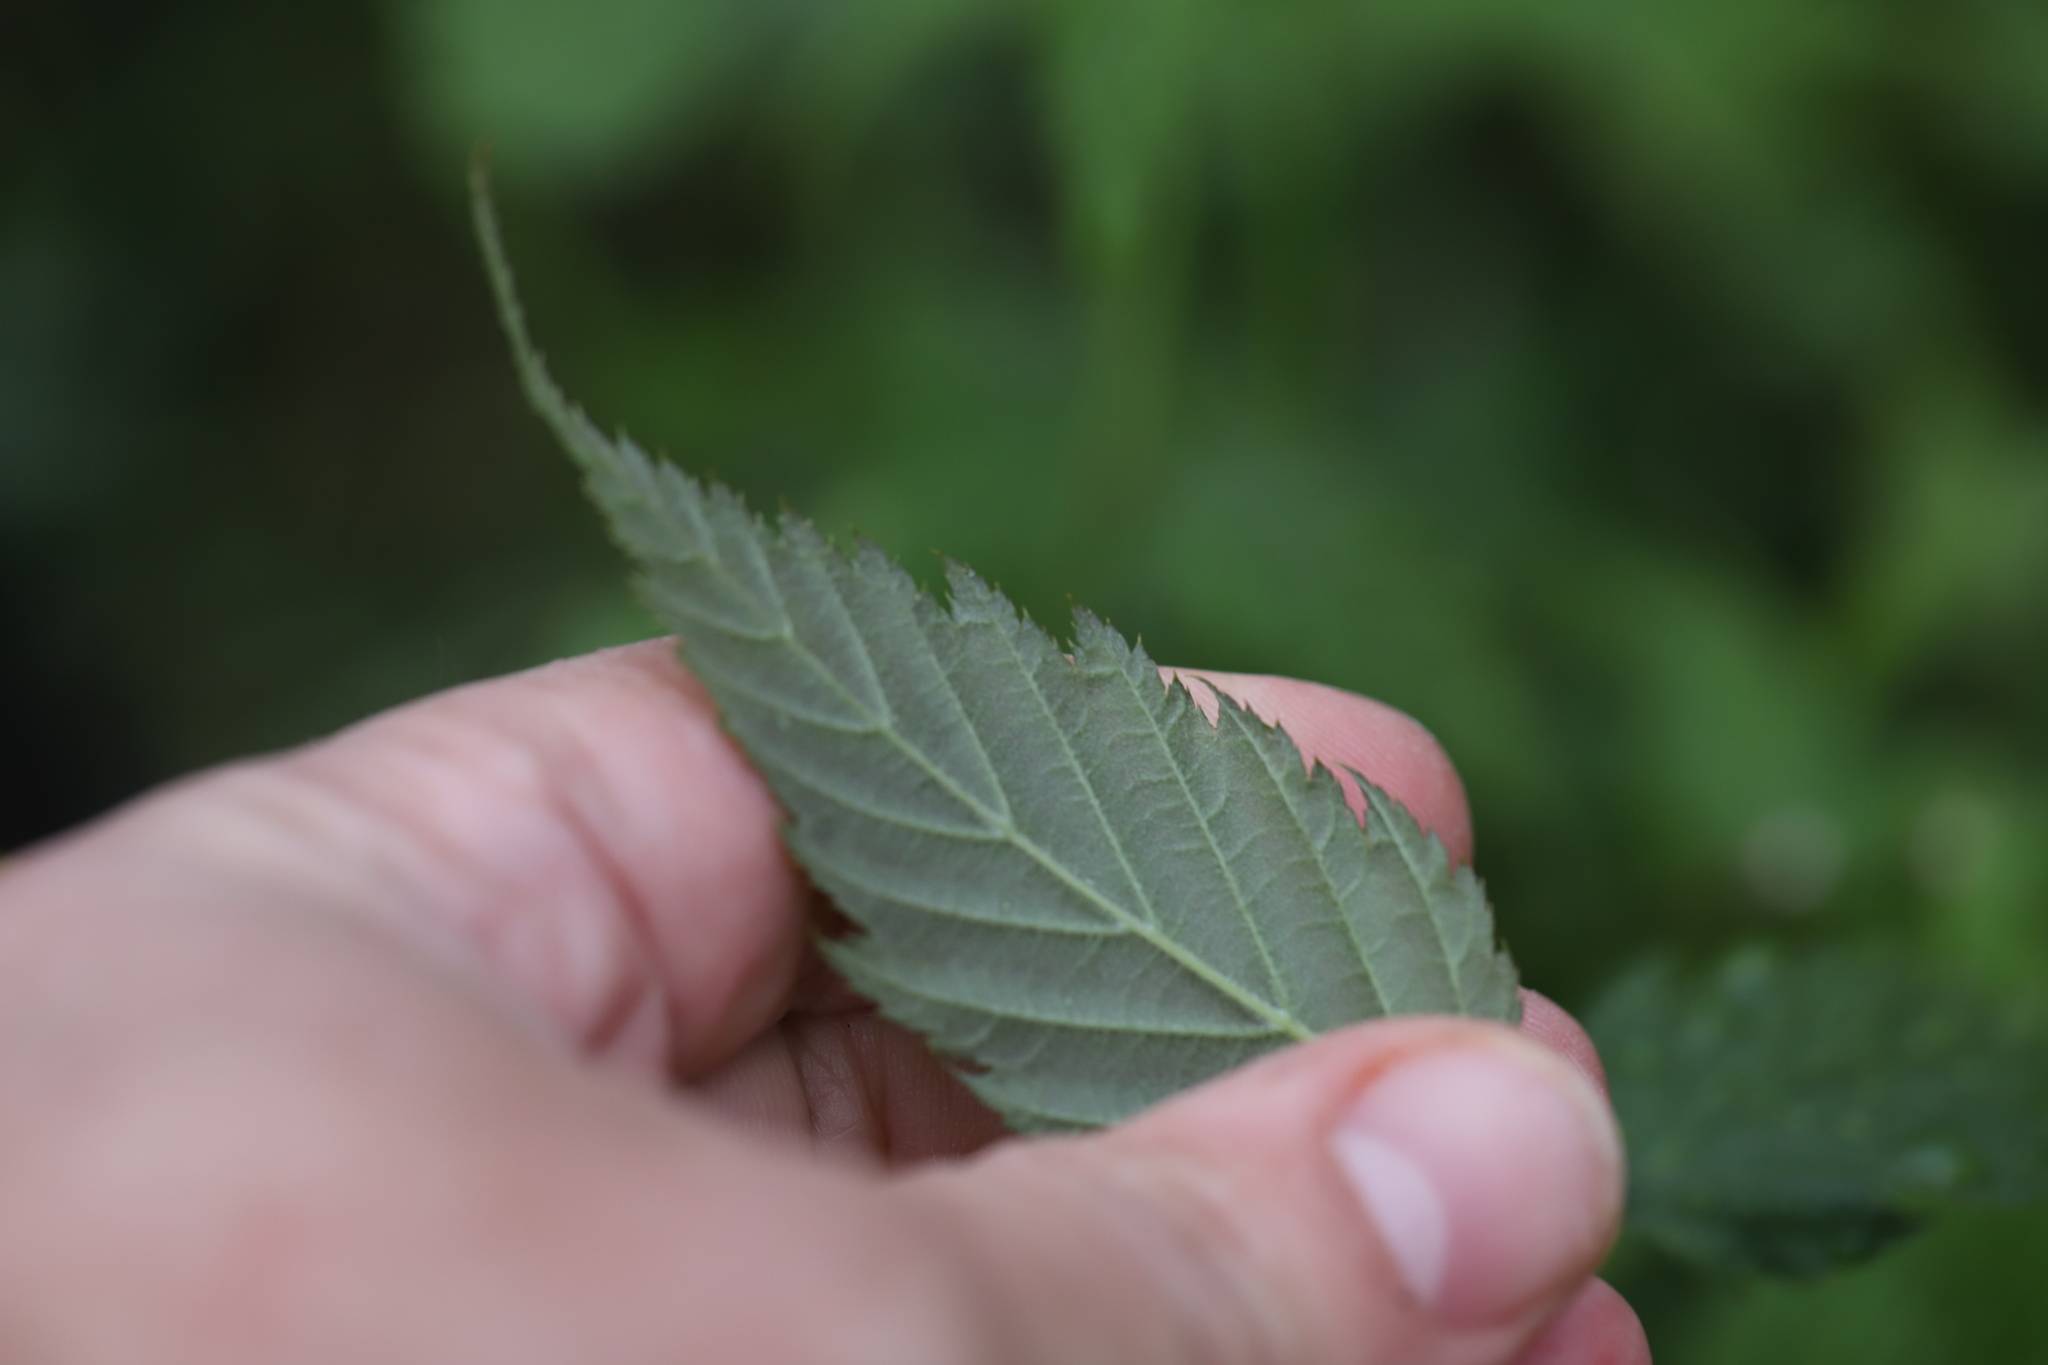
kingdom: Plantae
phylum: Tracheophyta
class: Magnoliopsida
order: Rosales
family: Rosaceae
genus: Kerria
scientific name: Kerria japonica
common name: Japanese kerria
